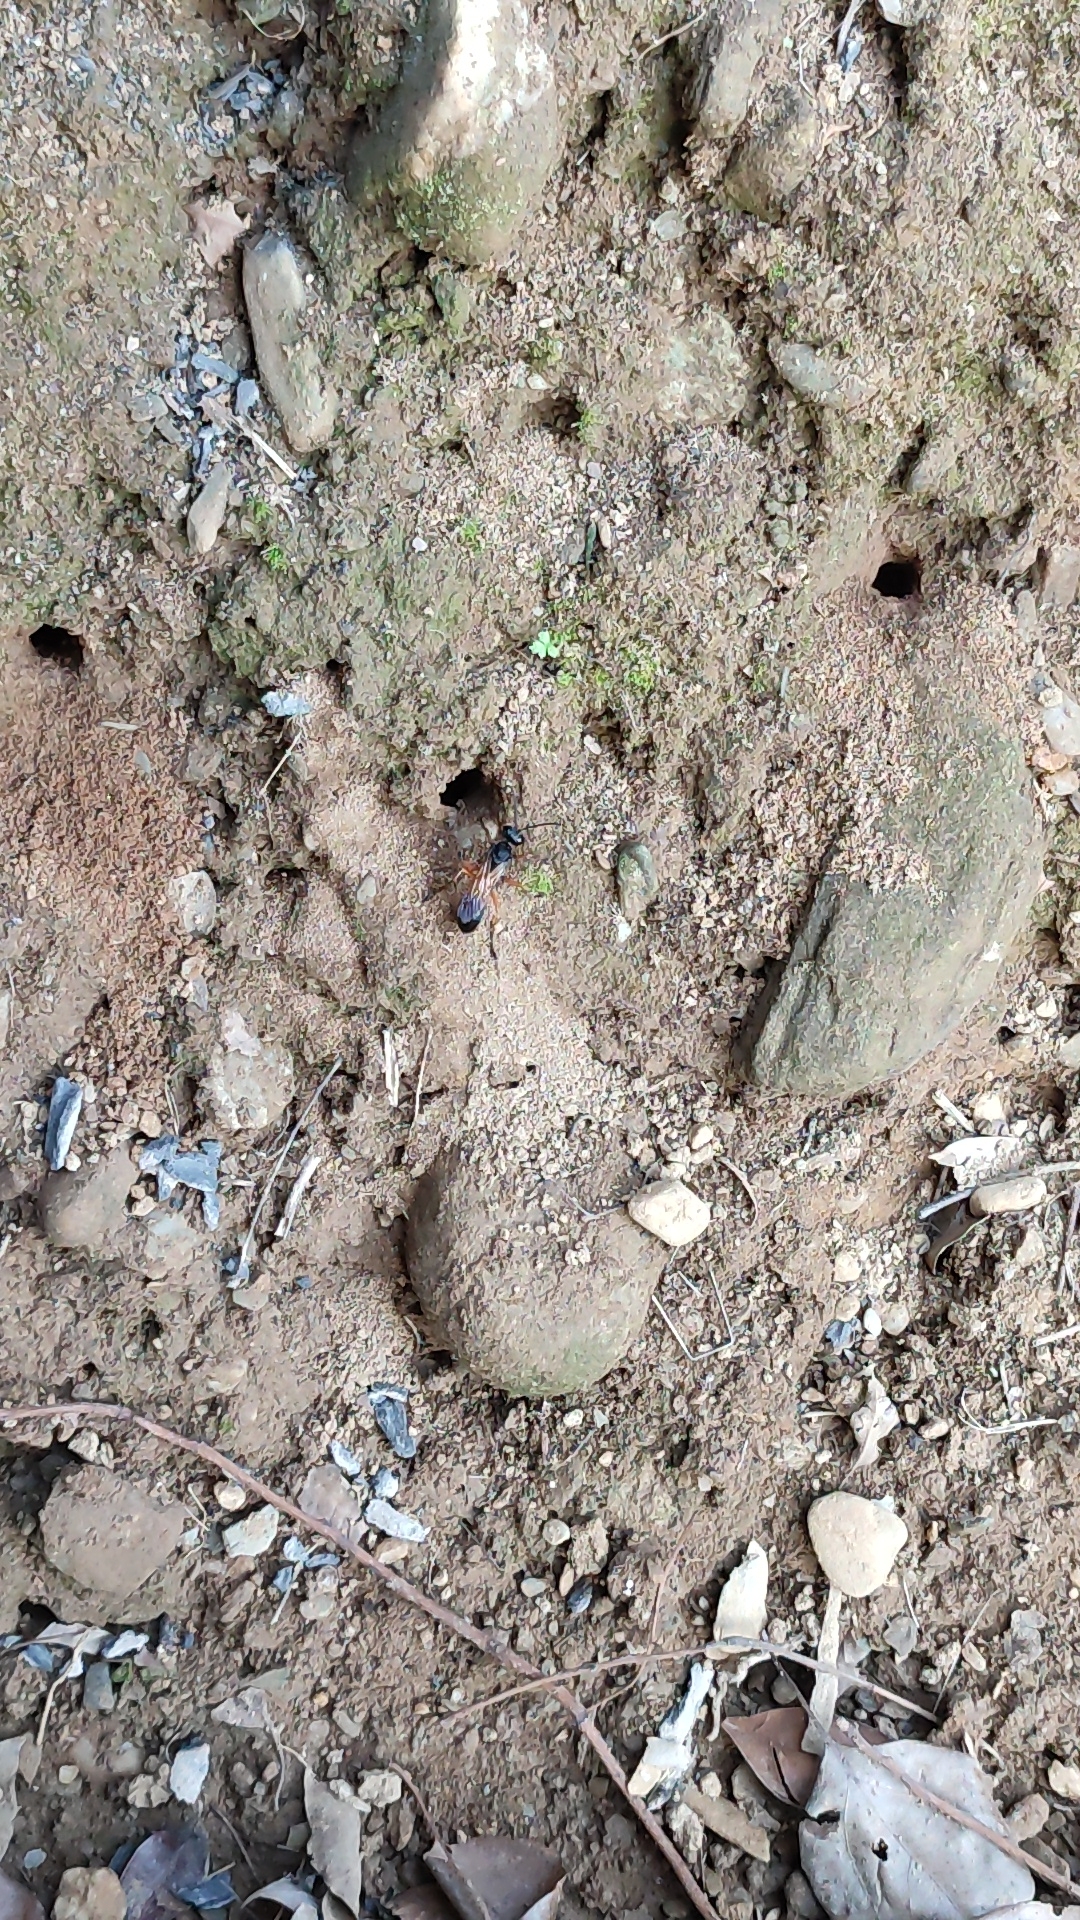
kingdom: Animalia
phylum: Arthropoda
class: Insecta
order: Hymenoptera
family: Sphecidae
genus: Sphex
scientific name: Sphex subtruncatus
